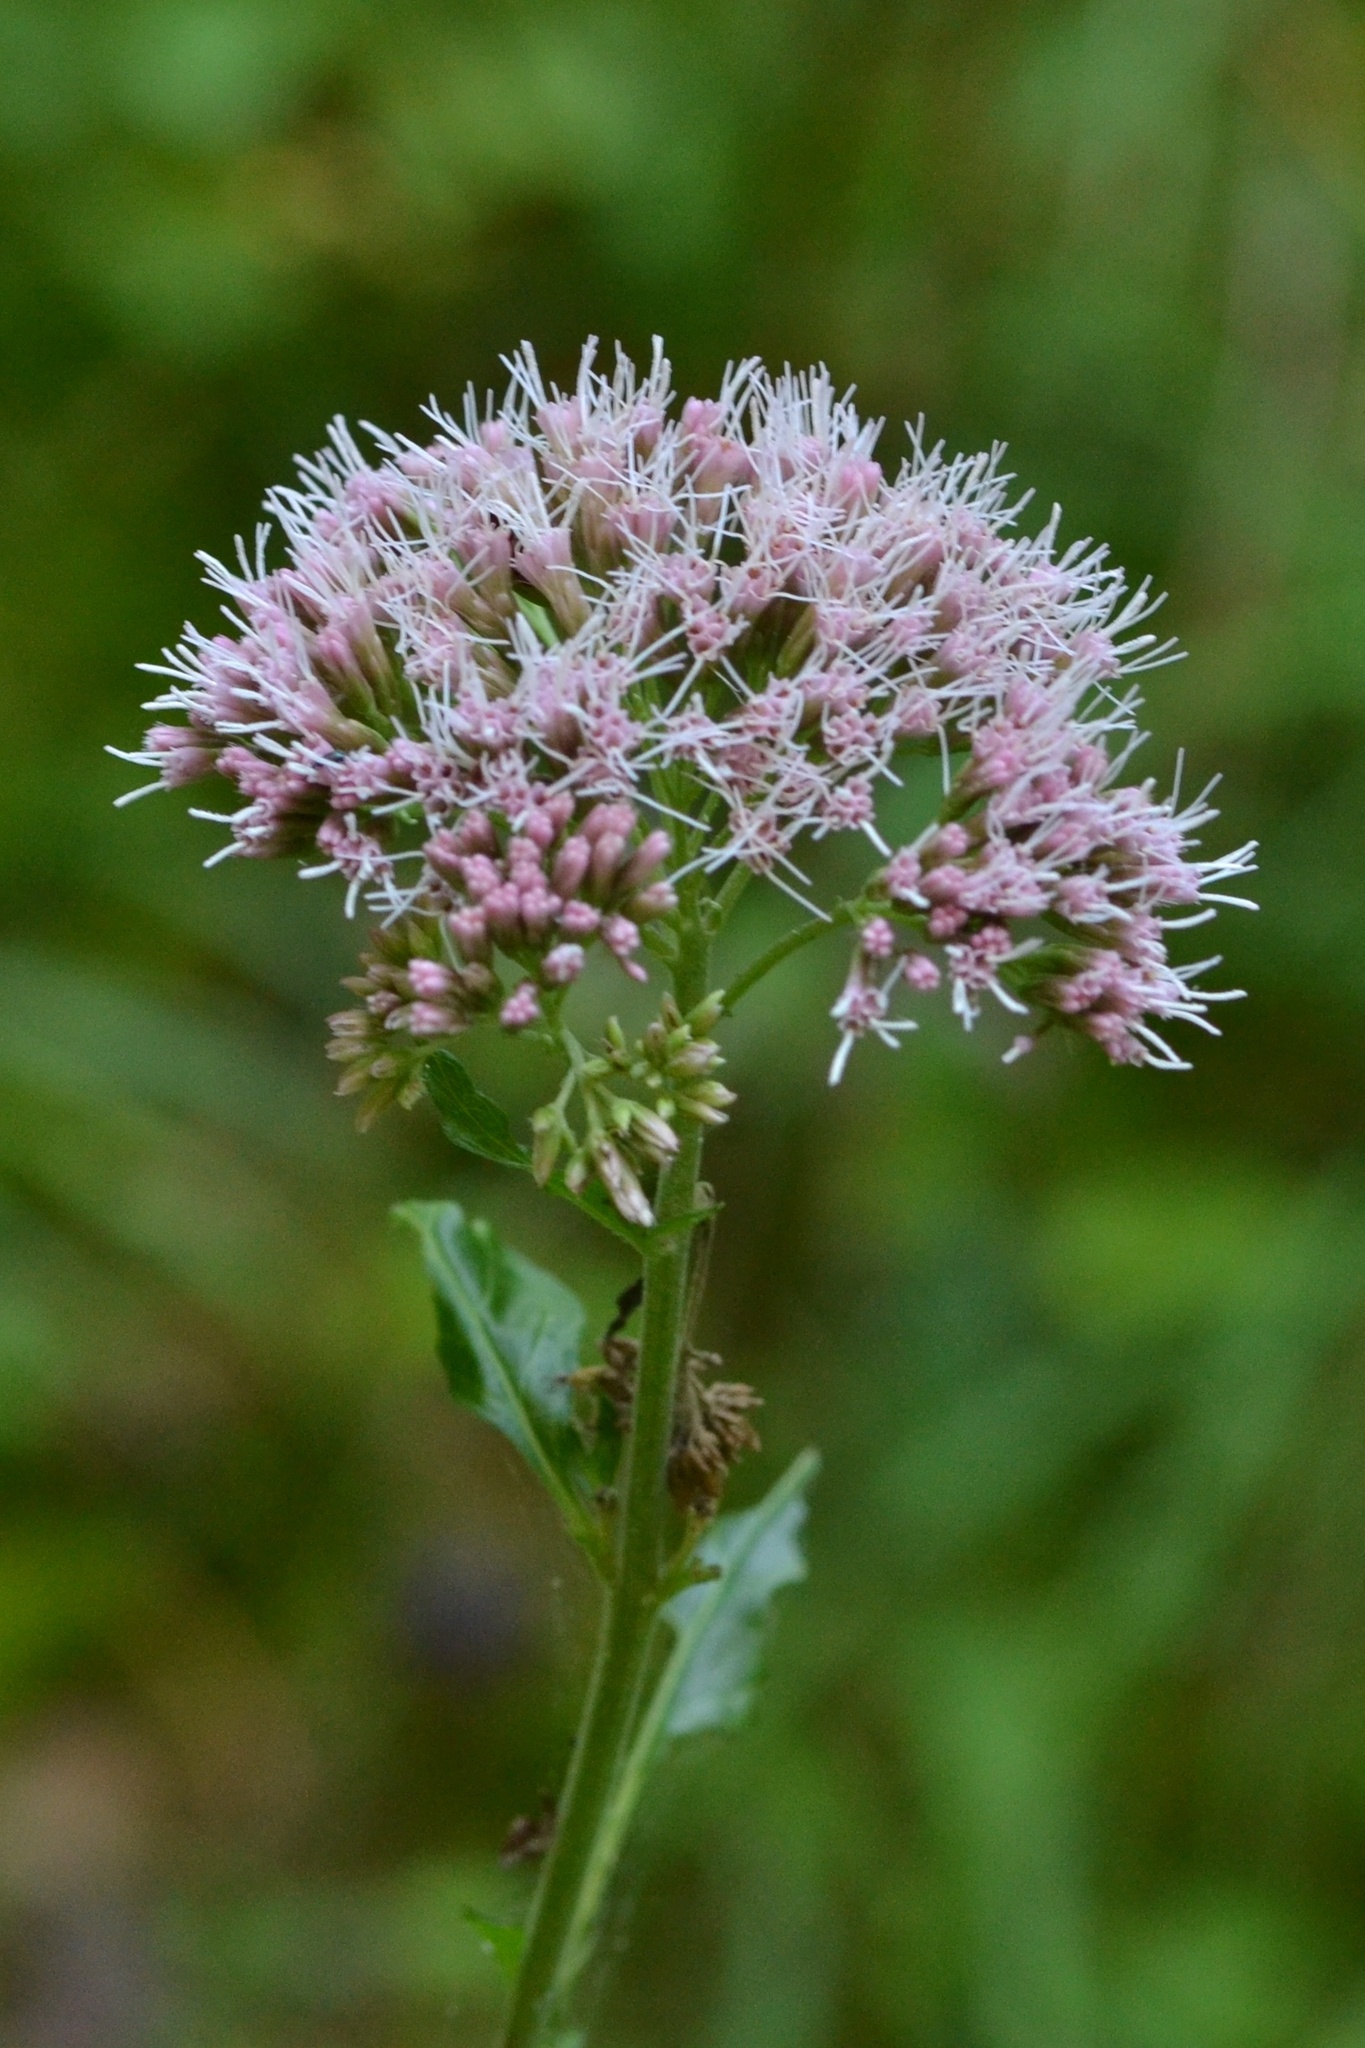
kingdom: Plantae
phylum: Tracheophyta
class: Magnoliopsida
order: Asterales
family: Asteraceae
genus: Eupatorium
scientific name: Eupatorium cannabinum
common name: Hemp-agrimony
